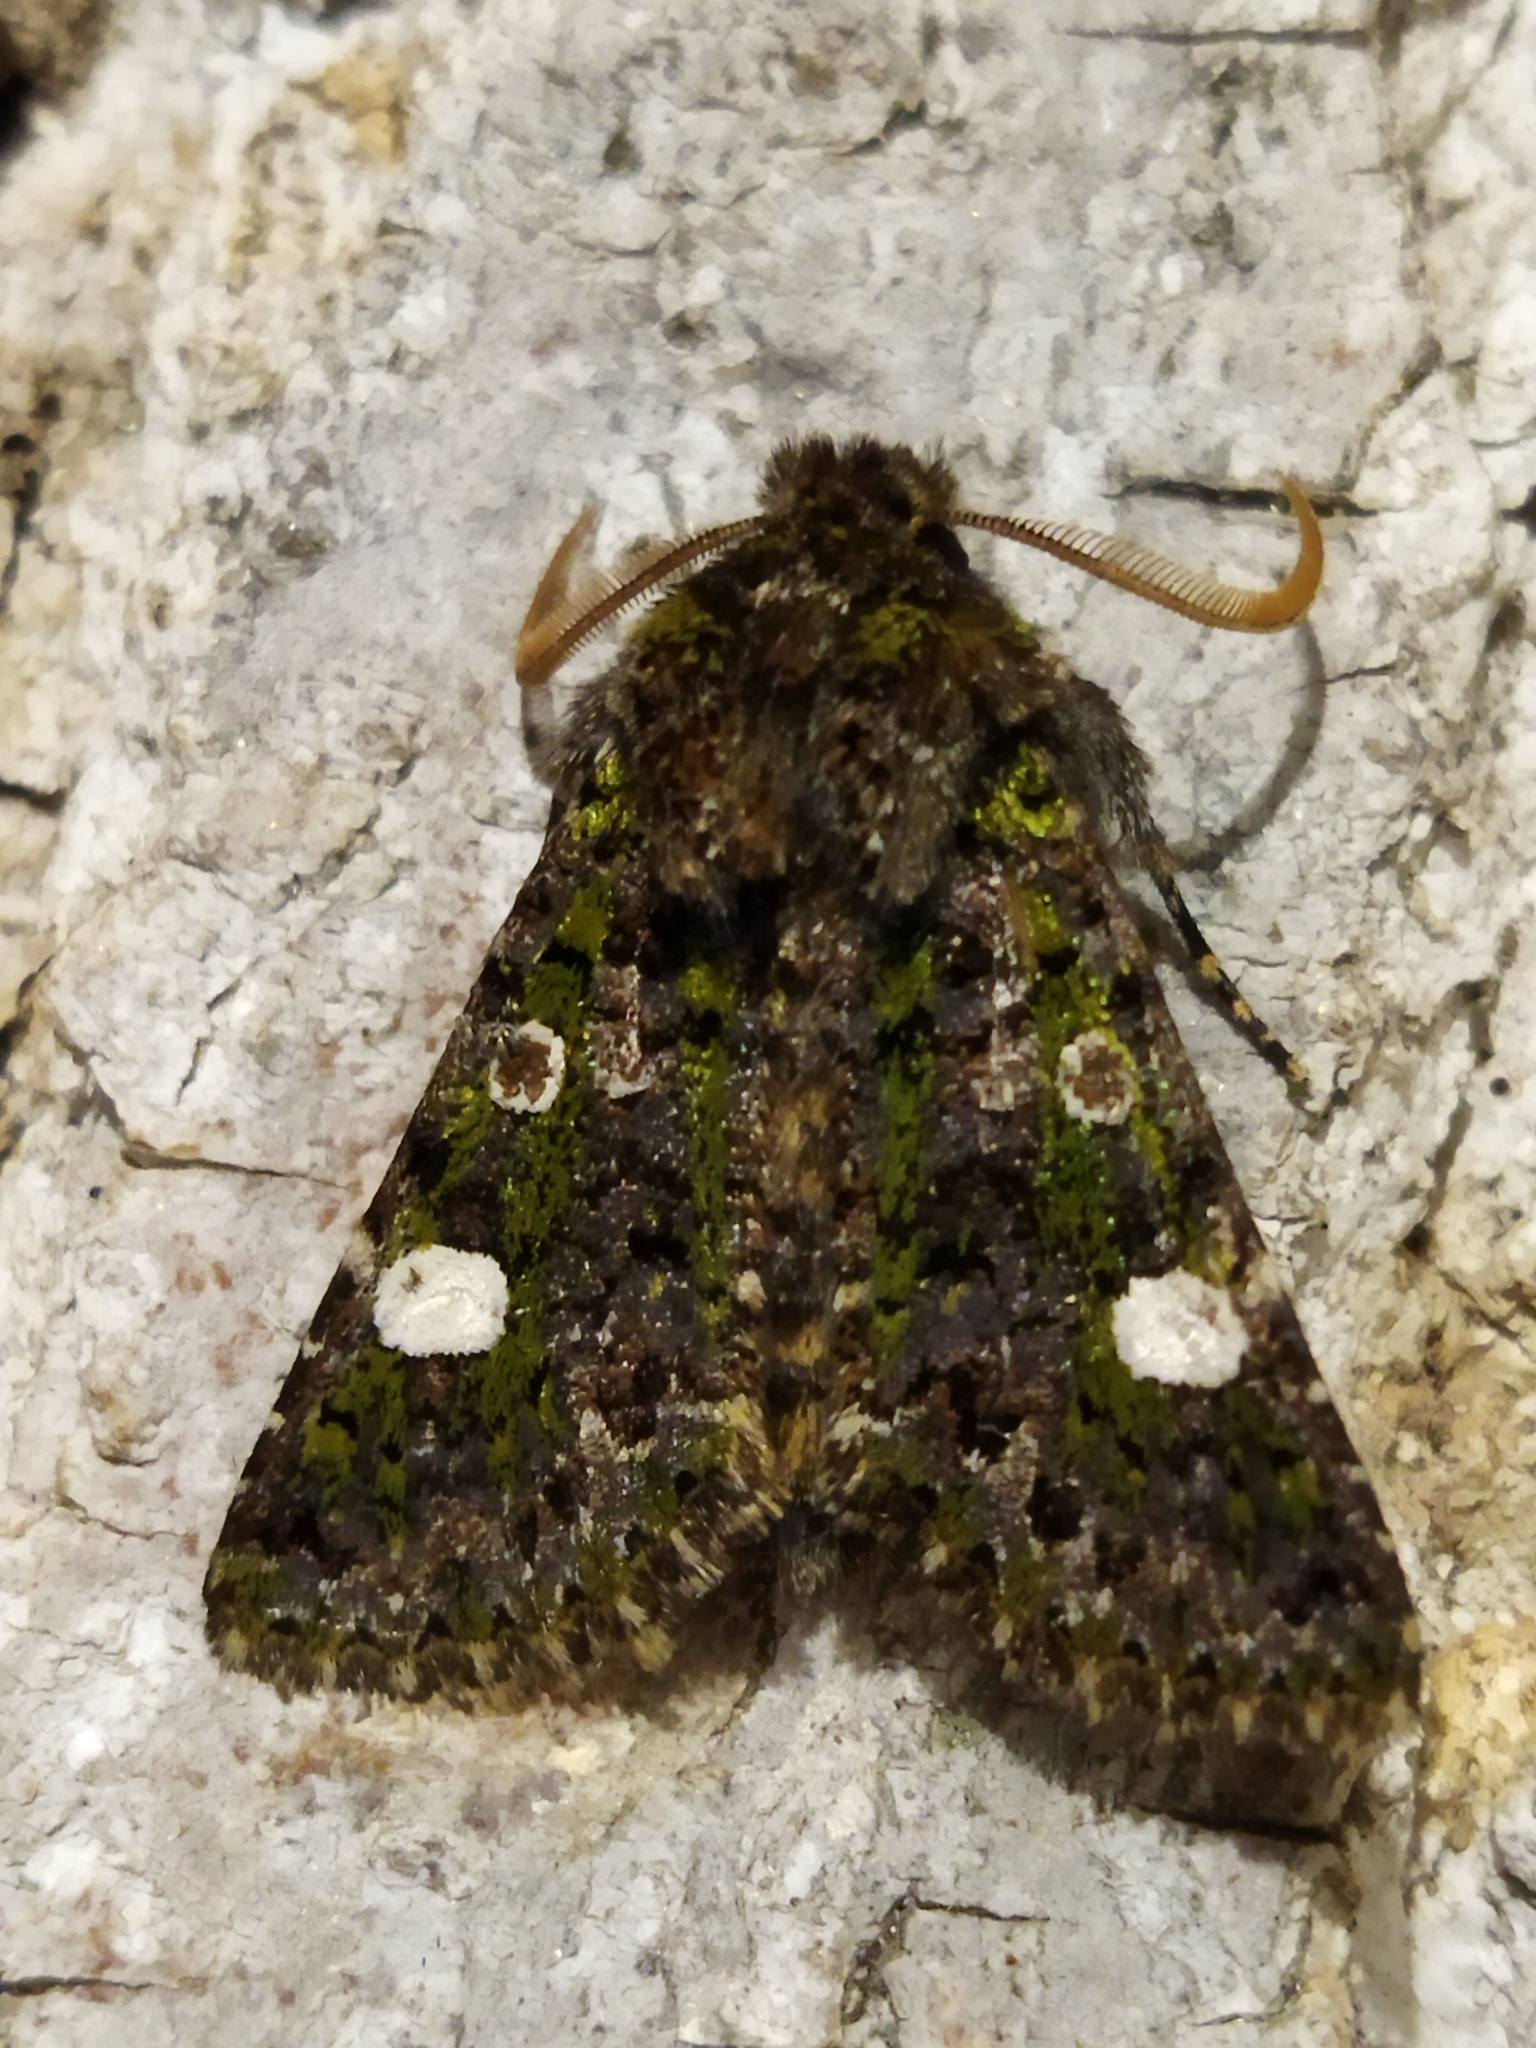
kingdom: Animalia
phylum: Arthropoda
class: Insecta
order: Lepidoptera
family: Noctuidae
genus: Valeria
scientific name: Valeria oleagina
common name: Green-brindled dot
